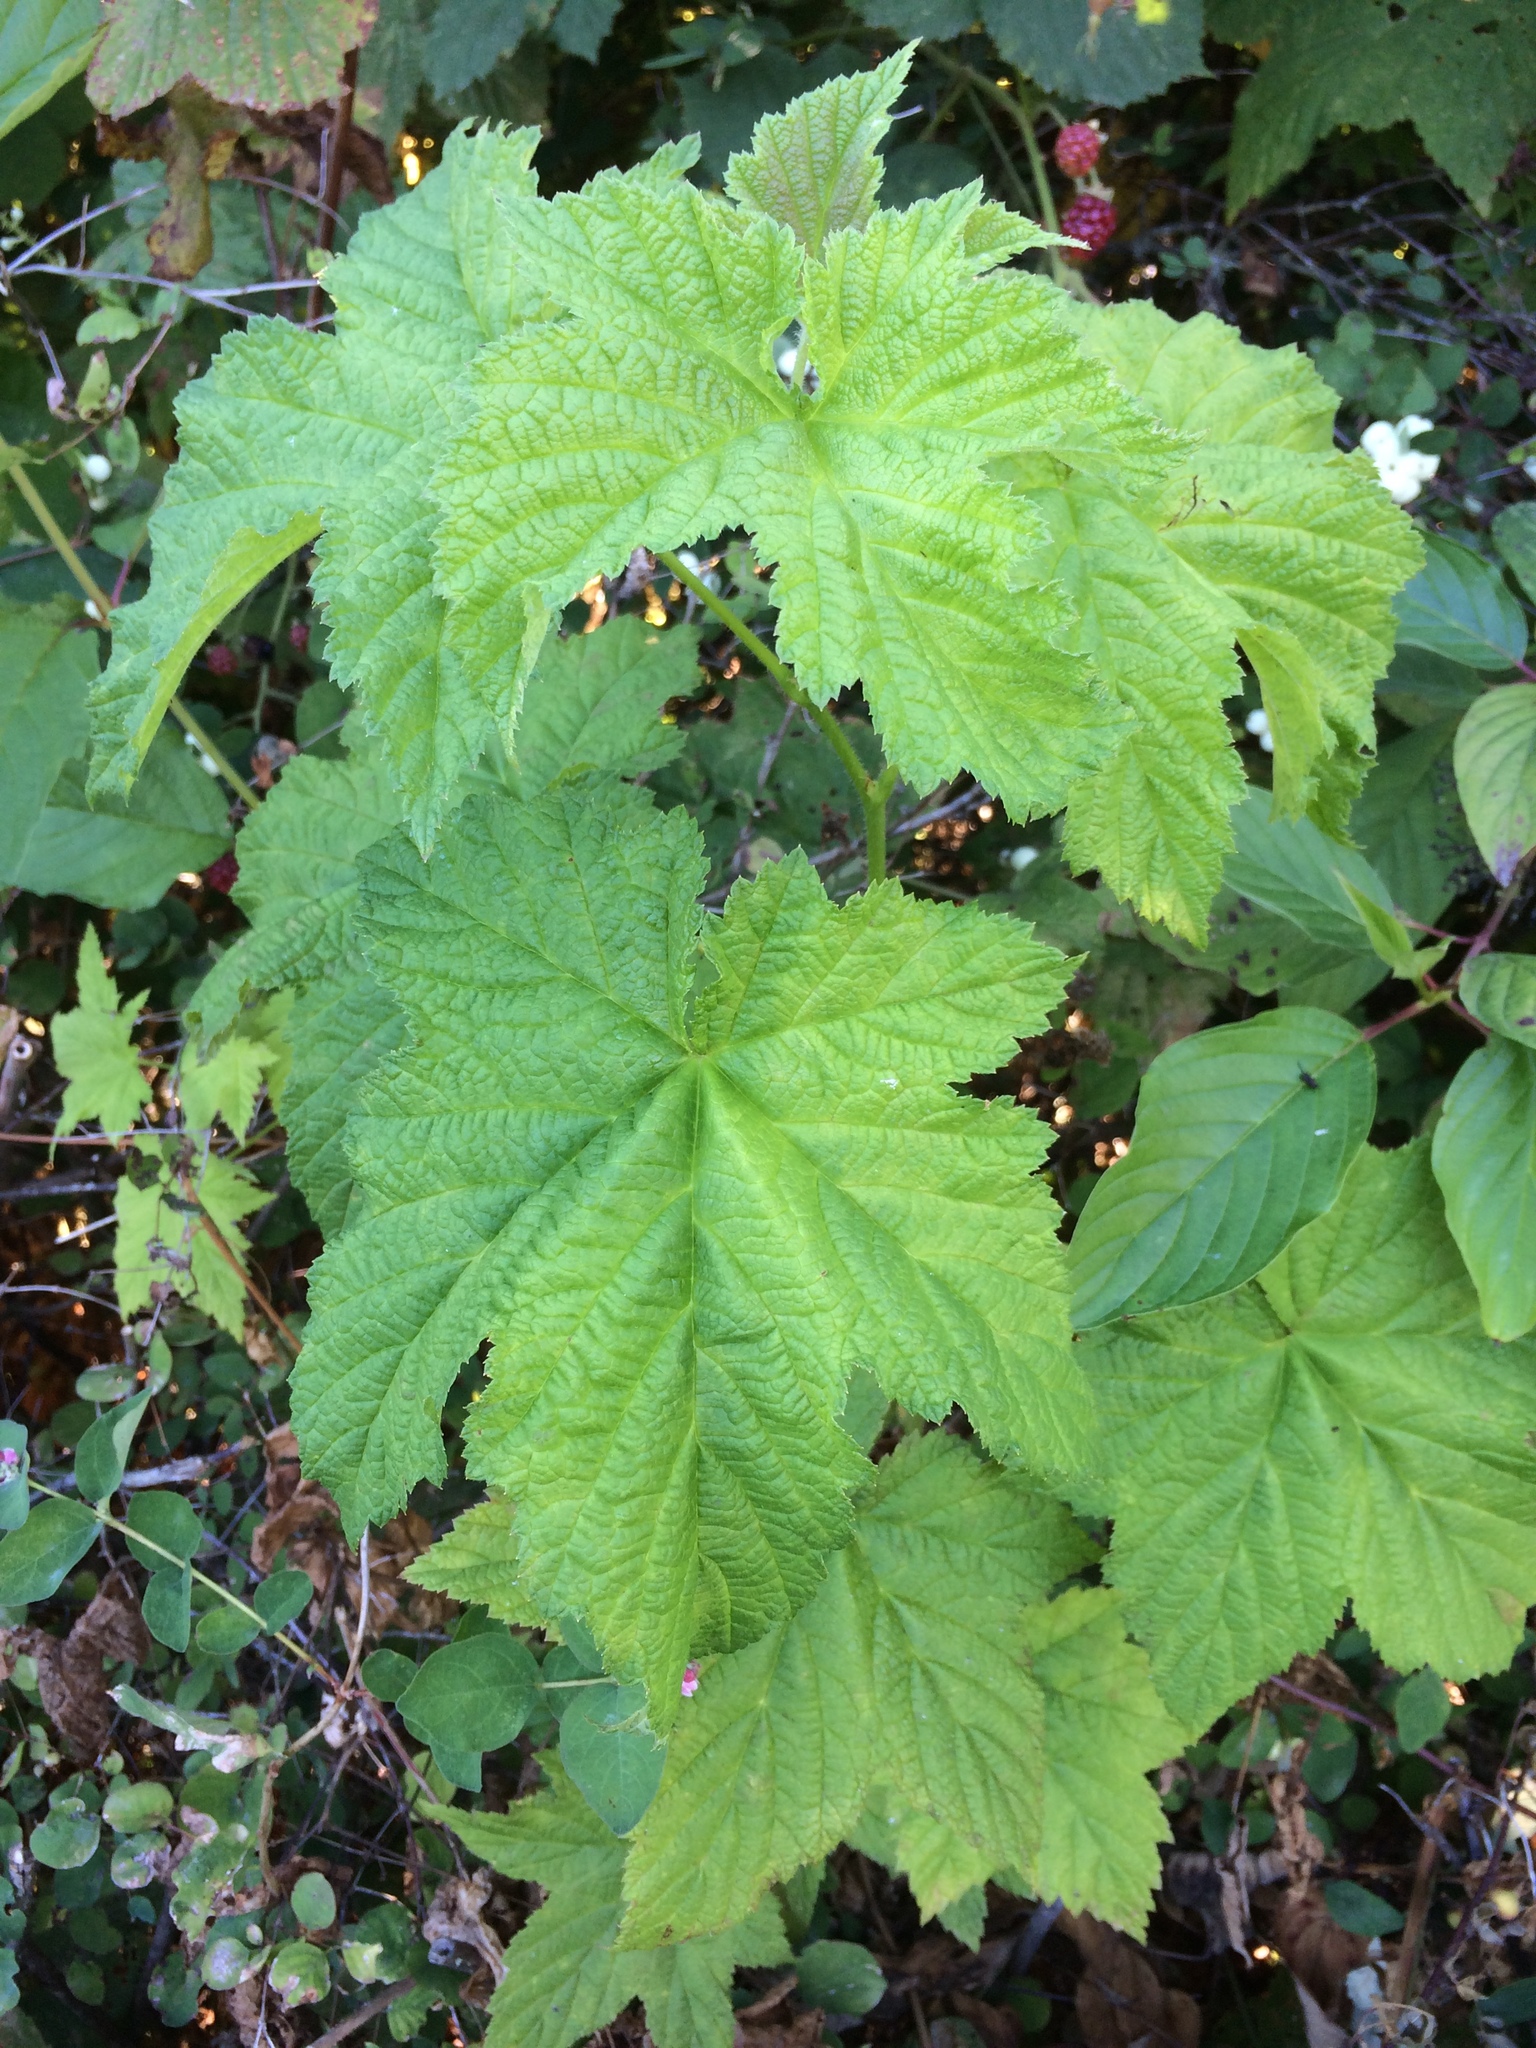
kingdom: Plantae
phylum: Tracheophyta
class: Magnoliopsida
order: Rosales
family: Rosaceae
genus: Rubus
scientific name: Rubus parviflorus
